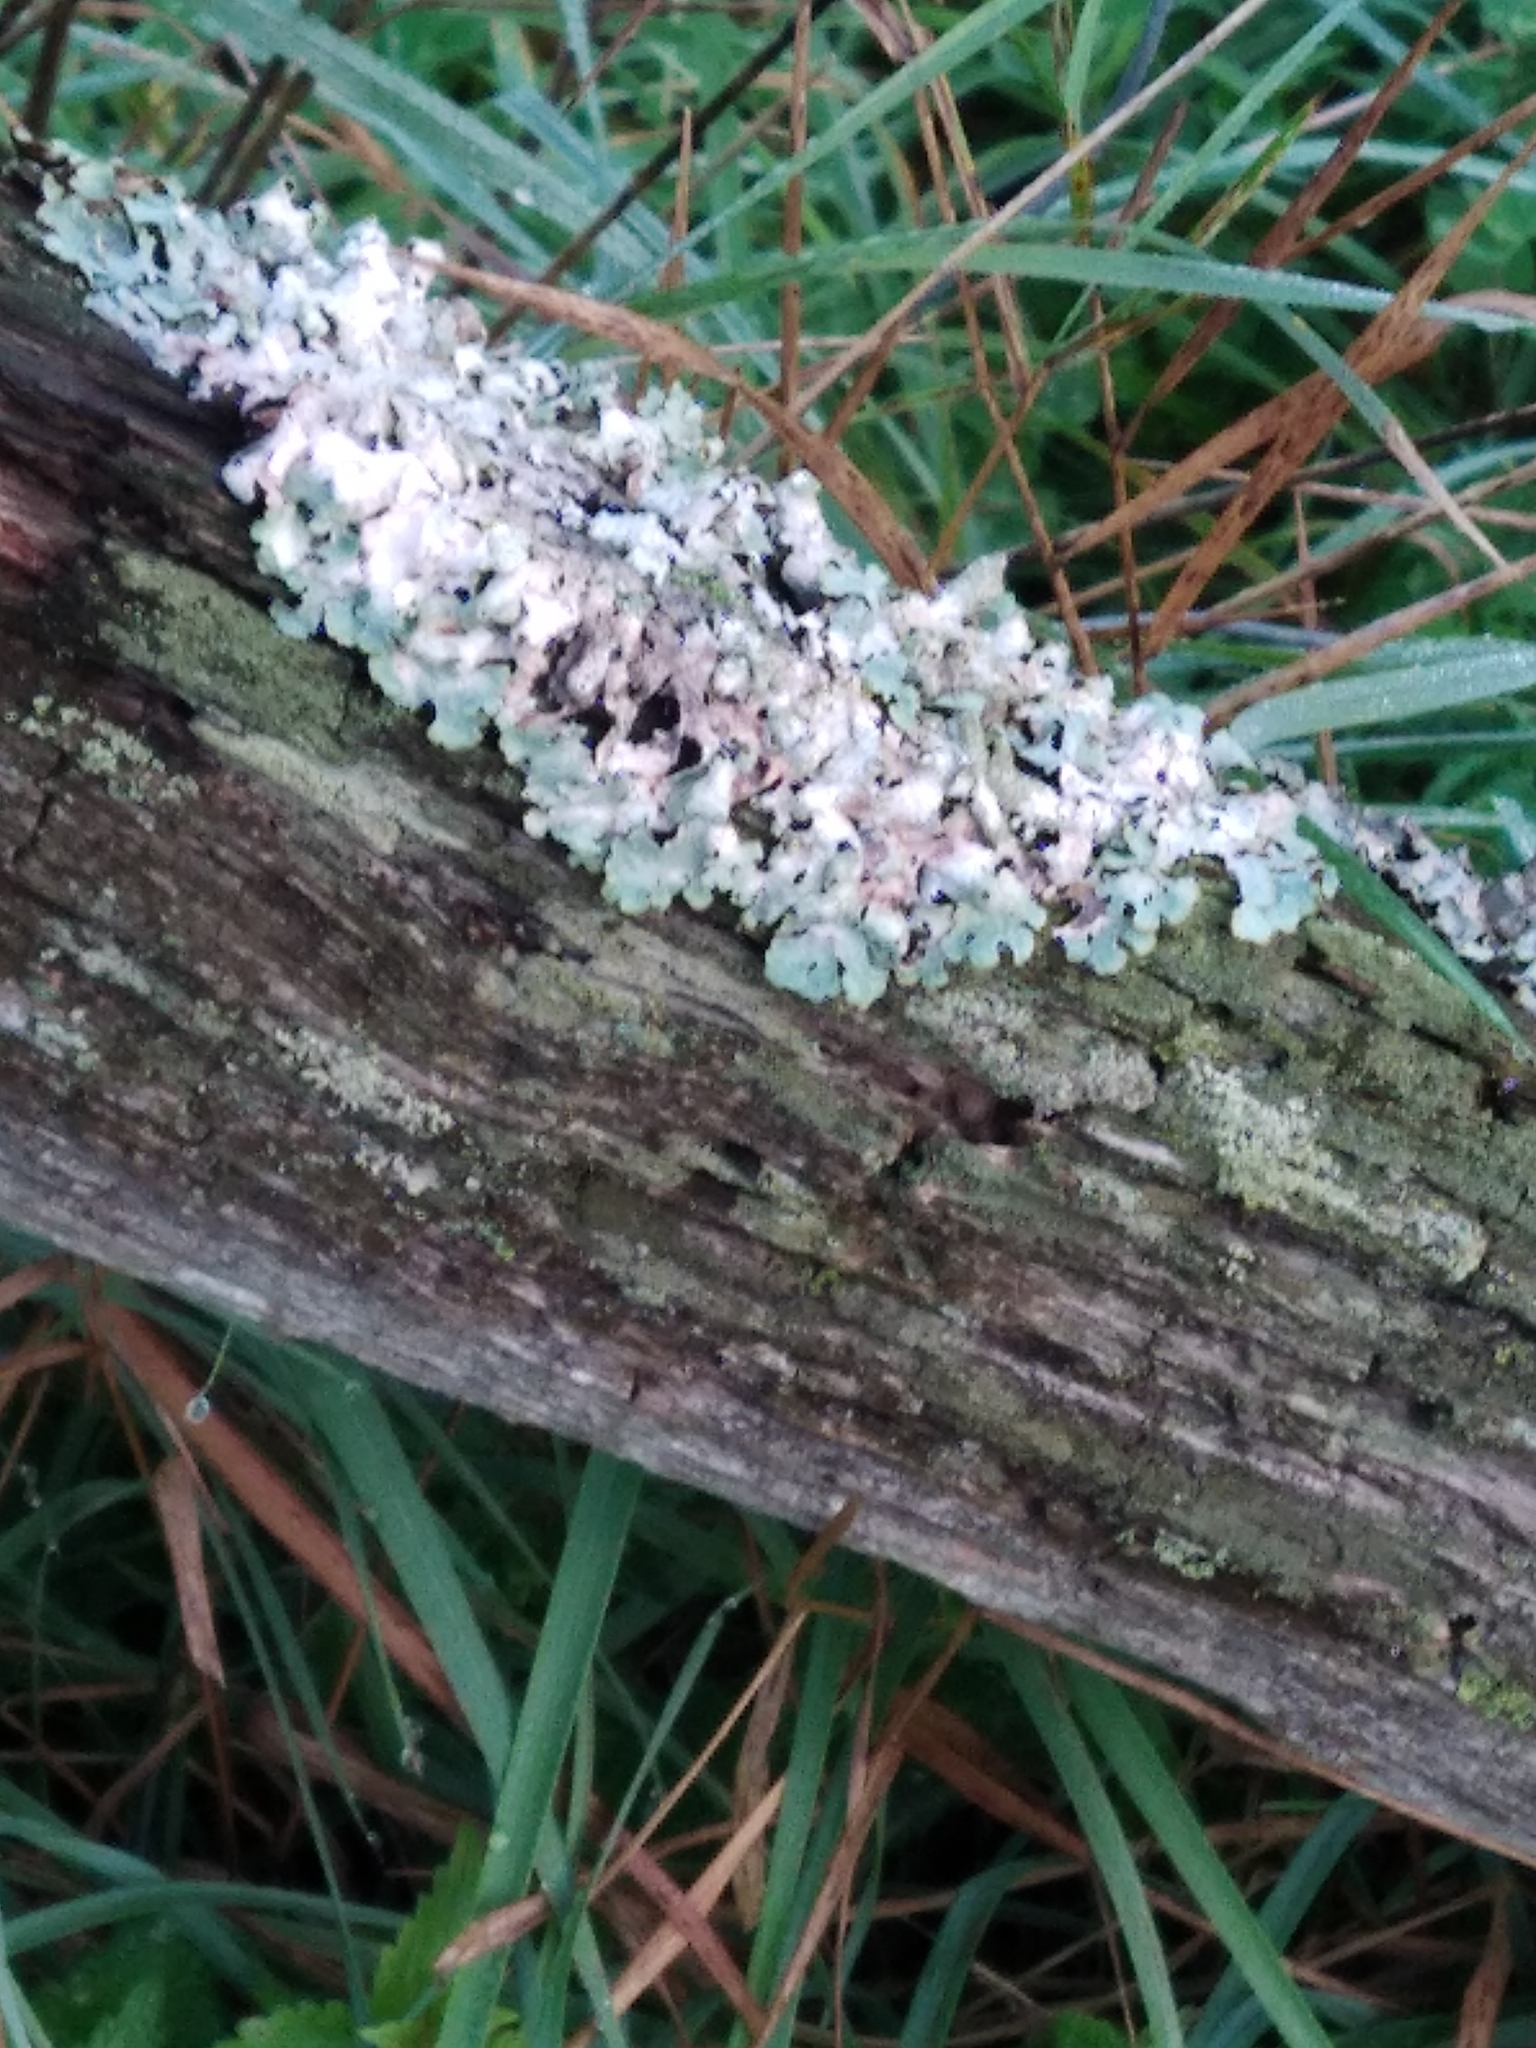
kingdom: Fungi
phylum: Ascomycota
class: Lecanoromycetes
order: Lecanorales
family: Parmeliaceae
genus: Parmelia
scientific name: Parmelia sulcata
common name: Netted shield lichen
